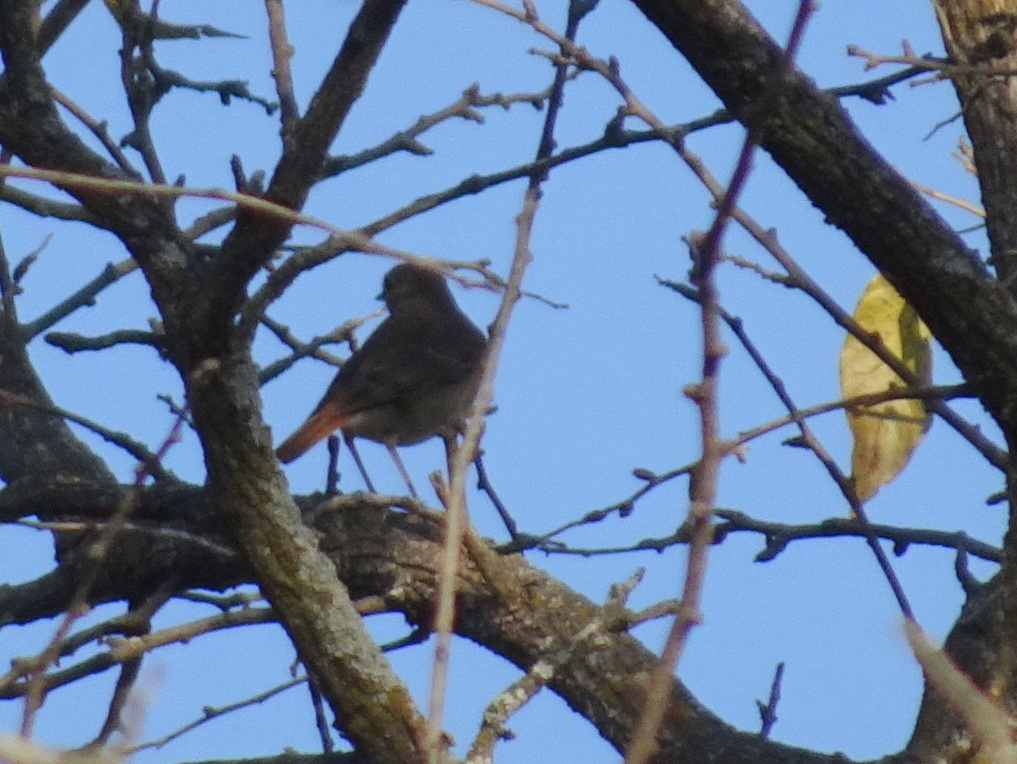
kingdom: Animalia
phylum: Chordata
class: Aves
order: Passeriformes
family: Turdidae
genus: Catharus
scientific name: Catharus guttatus
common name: Hermit thrush
